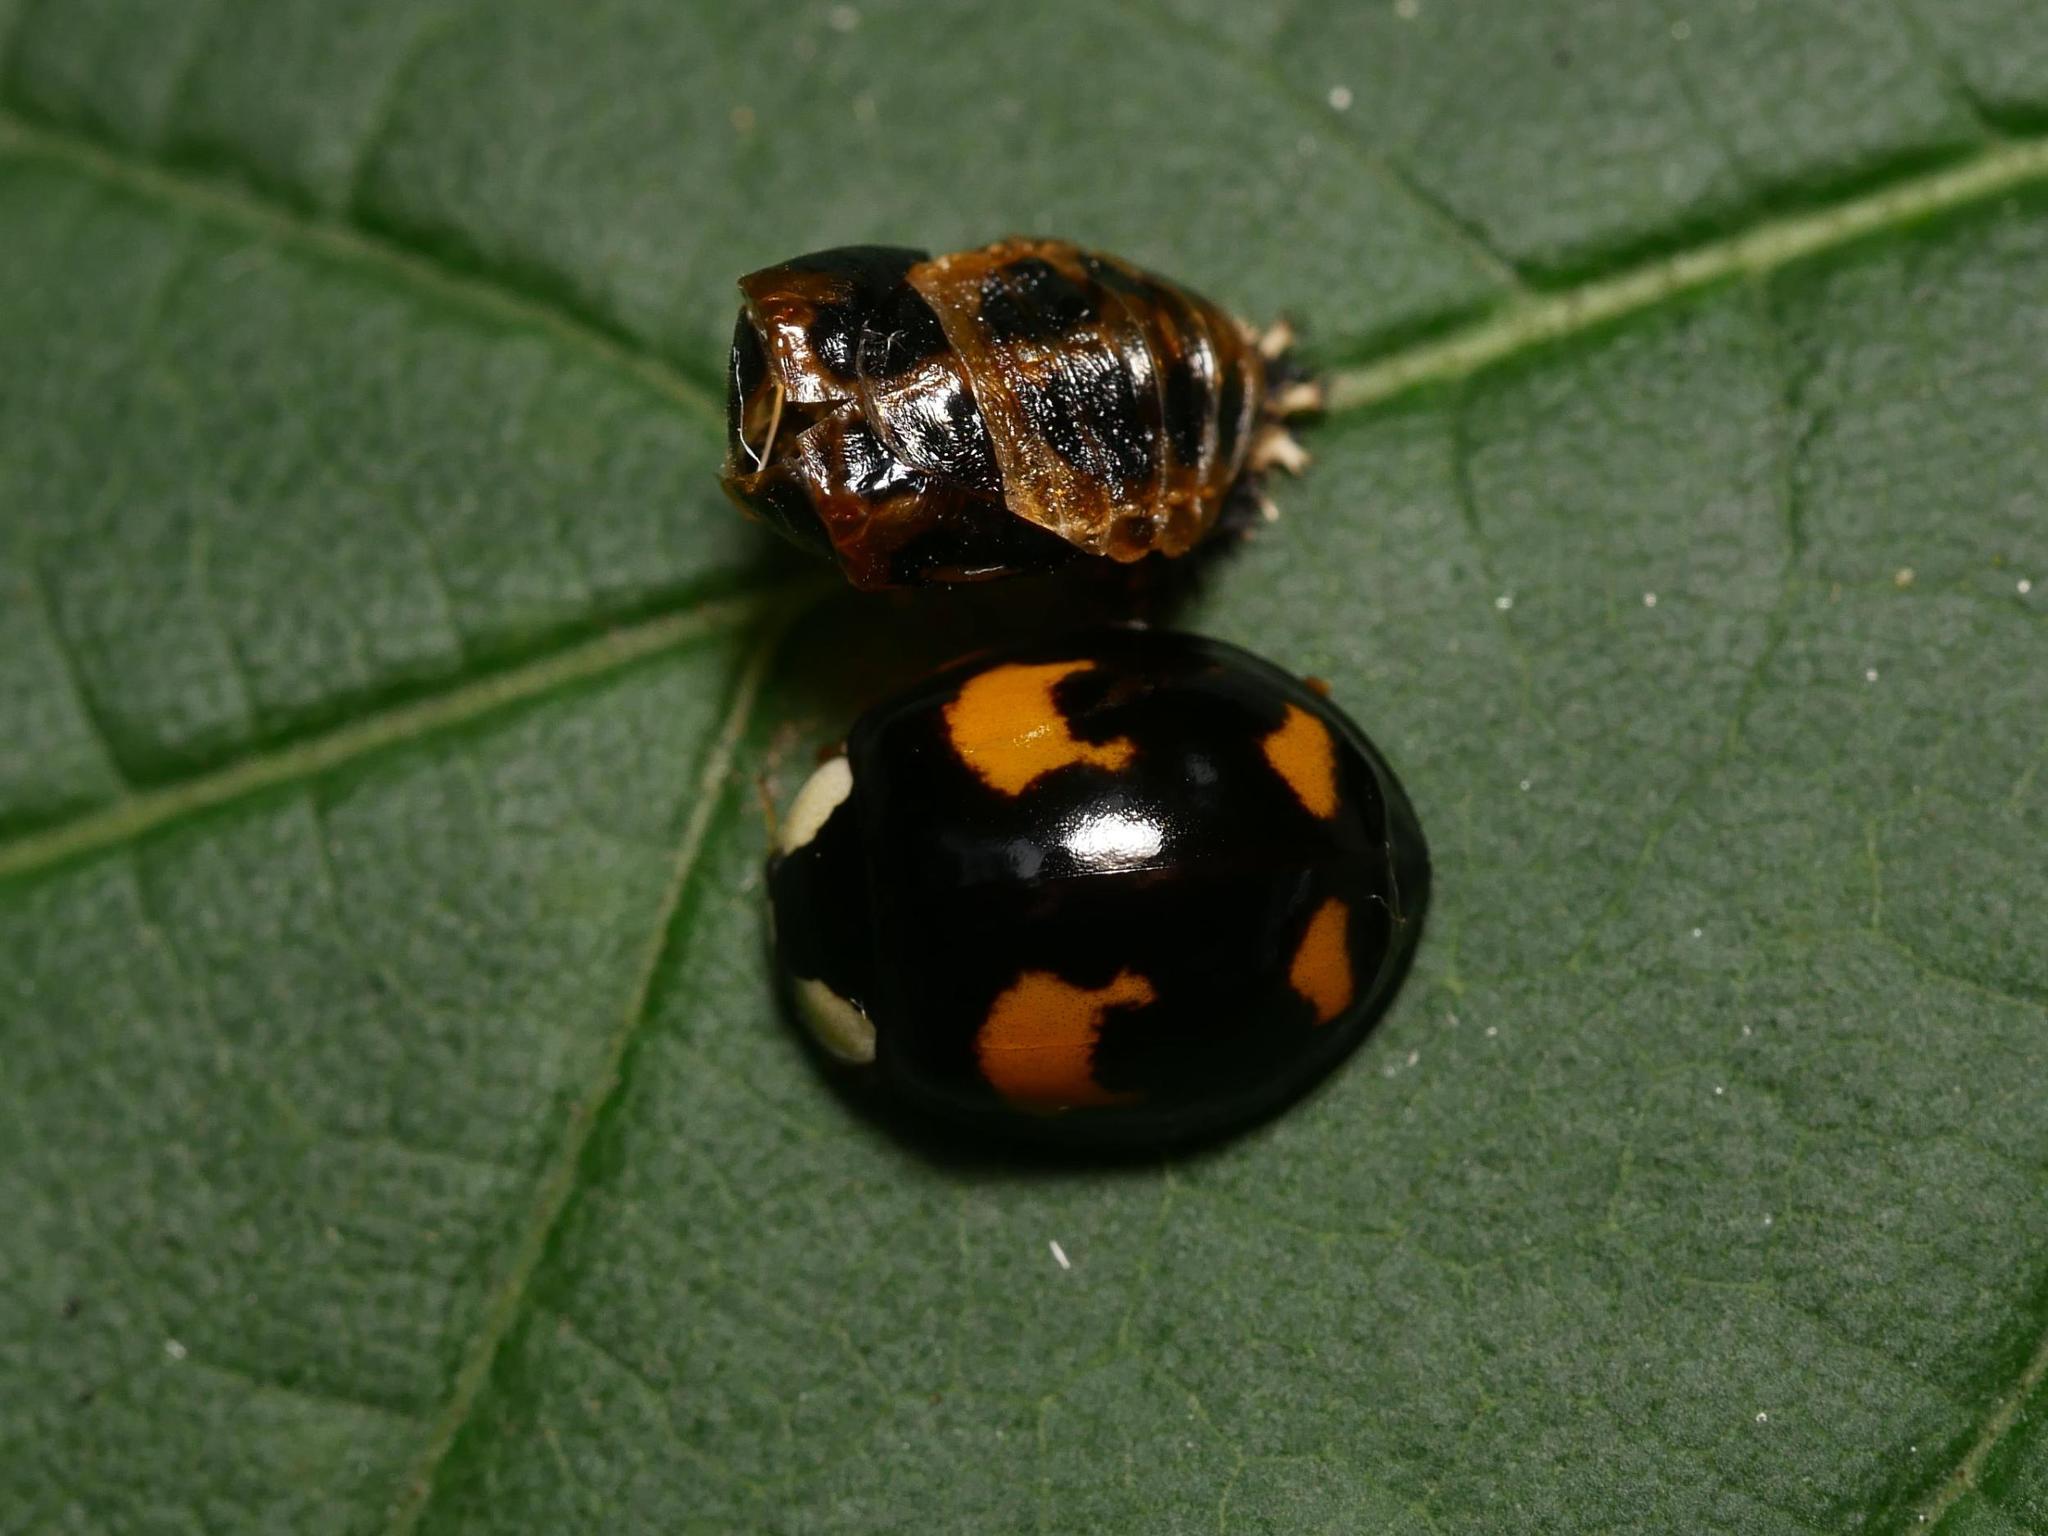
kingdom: Animalia
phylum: Arthropoda
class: Insecta
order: Coleoptera
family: Coccinellidae
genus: Harmonia
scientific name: Harmonia axyridis
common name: Harlequin ladybird
